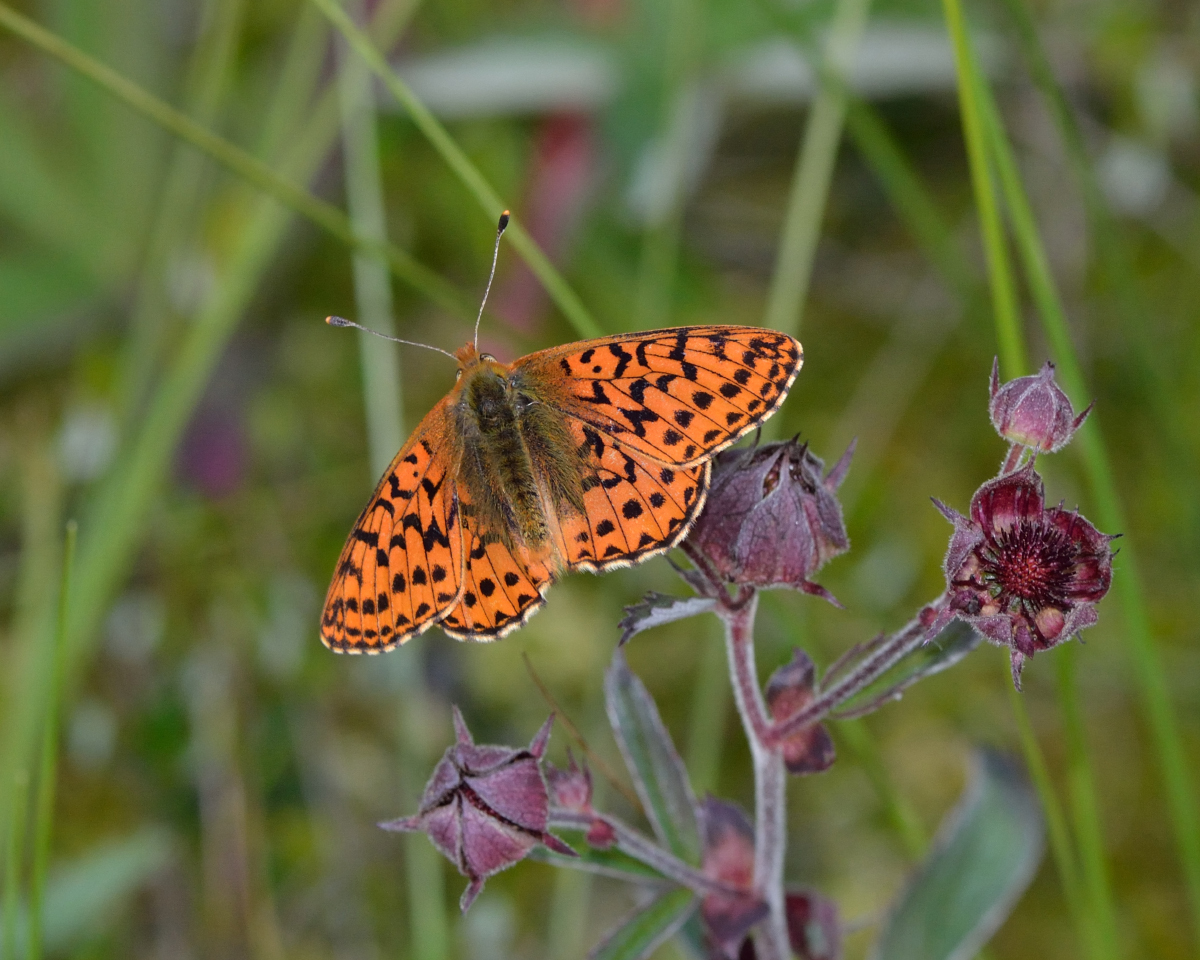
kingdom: Animalia
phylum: Arthropoda
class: Insecta
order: Lepidoptera
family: Nymphalidae
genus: Boloria
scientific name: Boloria aquilonaris
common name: Cranberry fritillary
